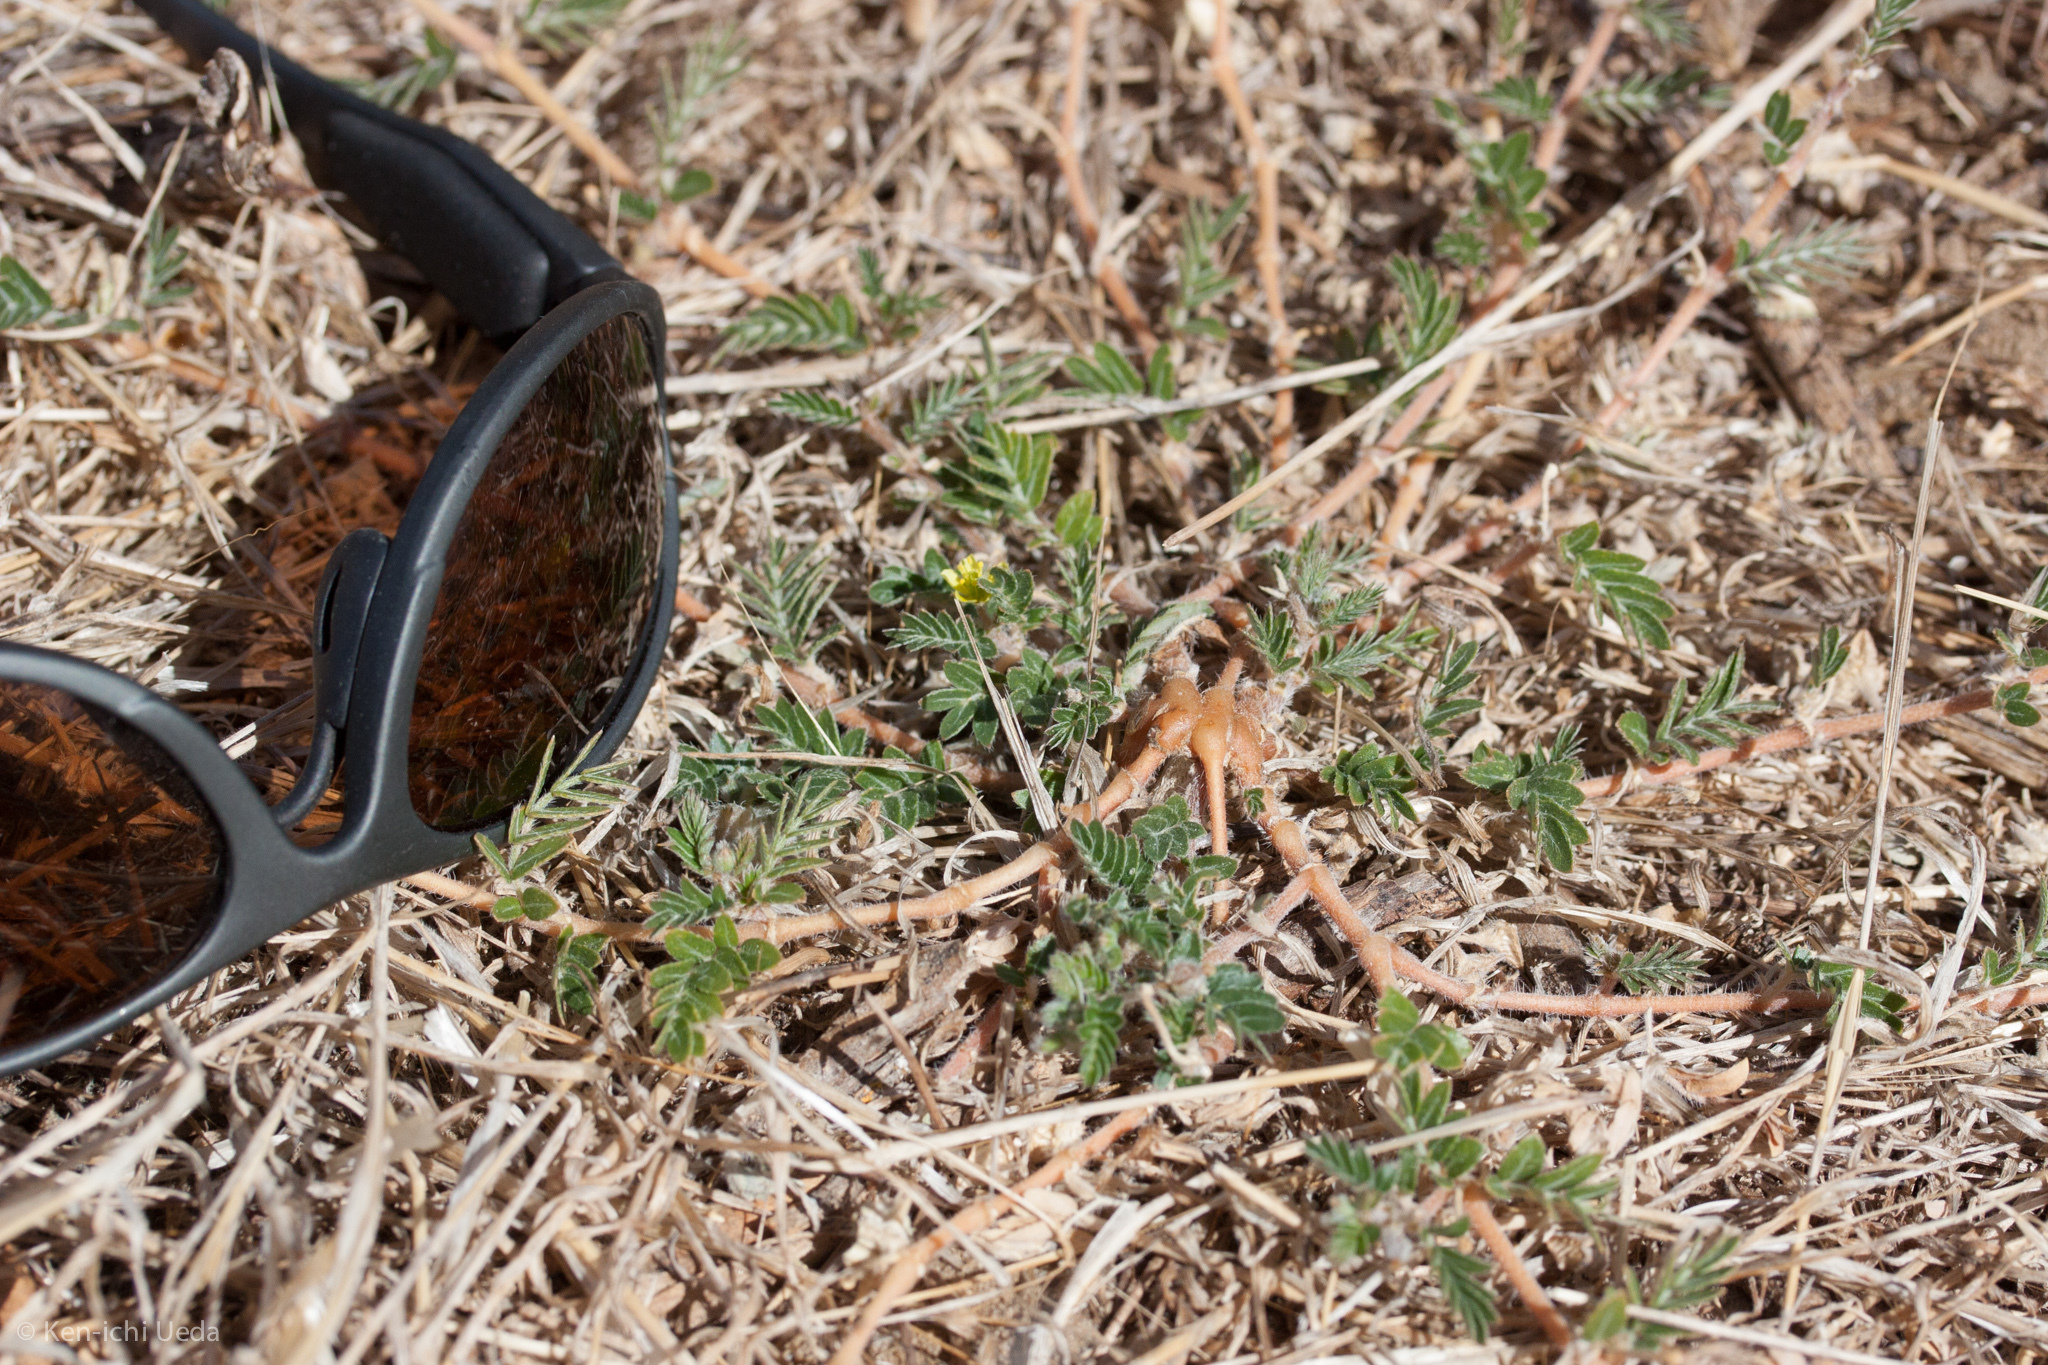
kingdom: Plantae
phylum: Tracheophyta
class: Magnoliopsida
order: Zygophyllales
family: Zygophyllaceae
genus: Tribulus
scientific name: Tribulus terrestris
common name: Puncturevine
